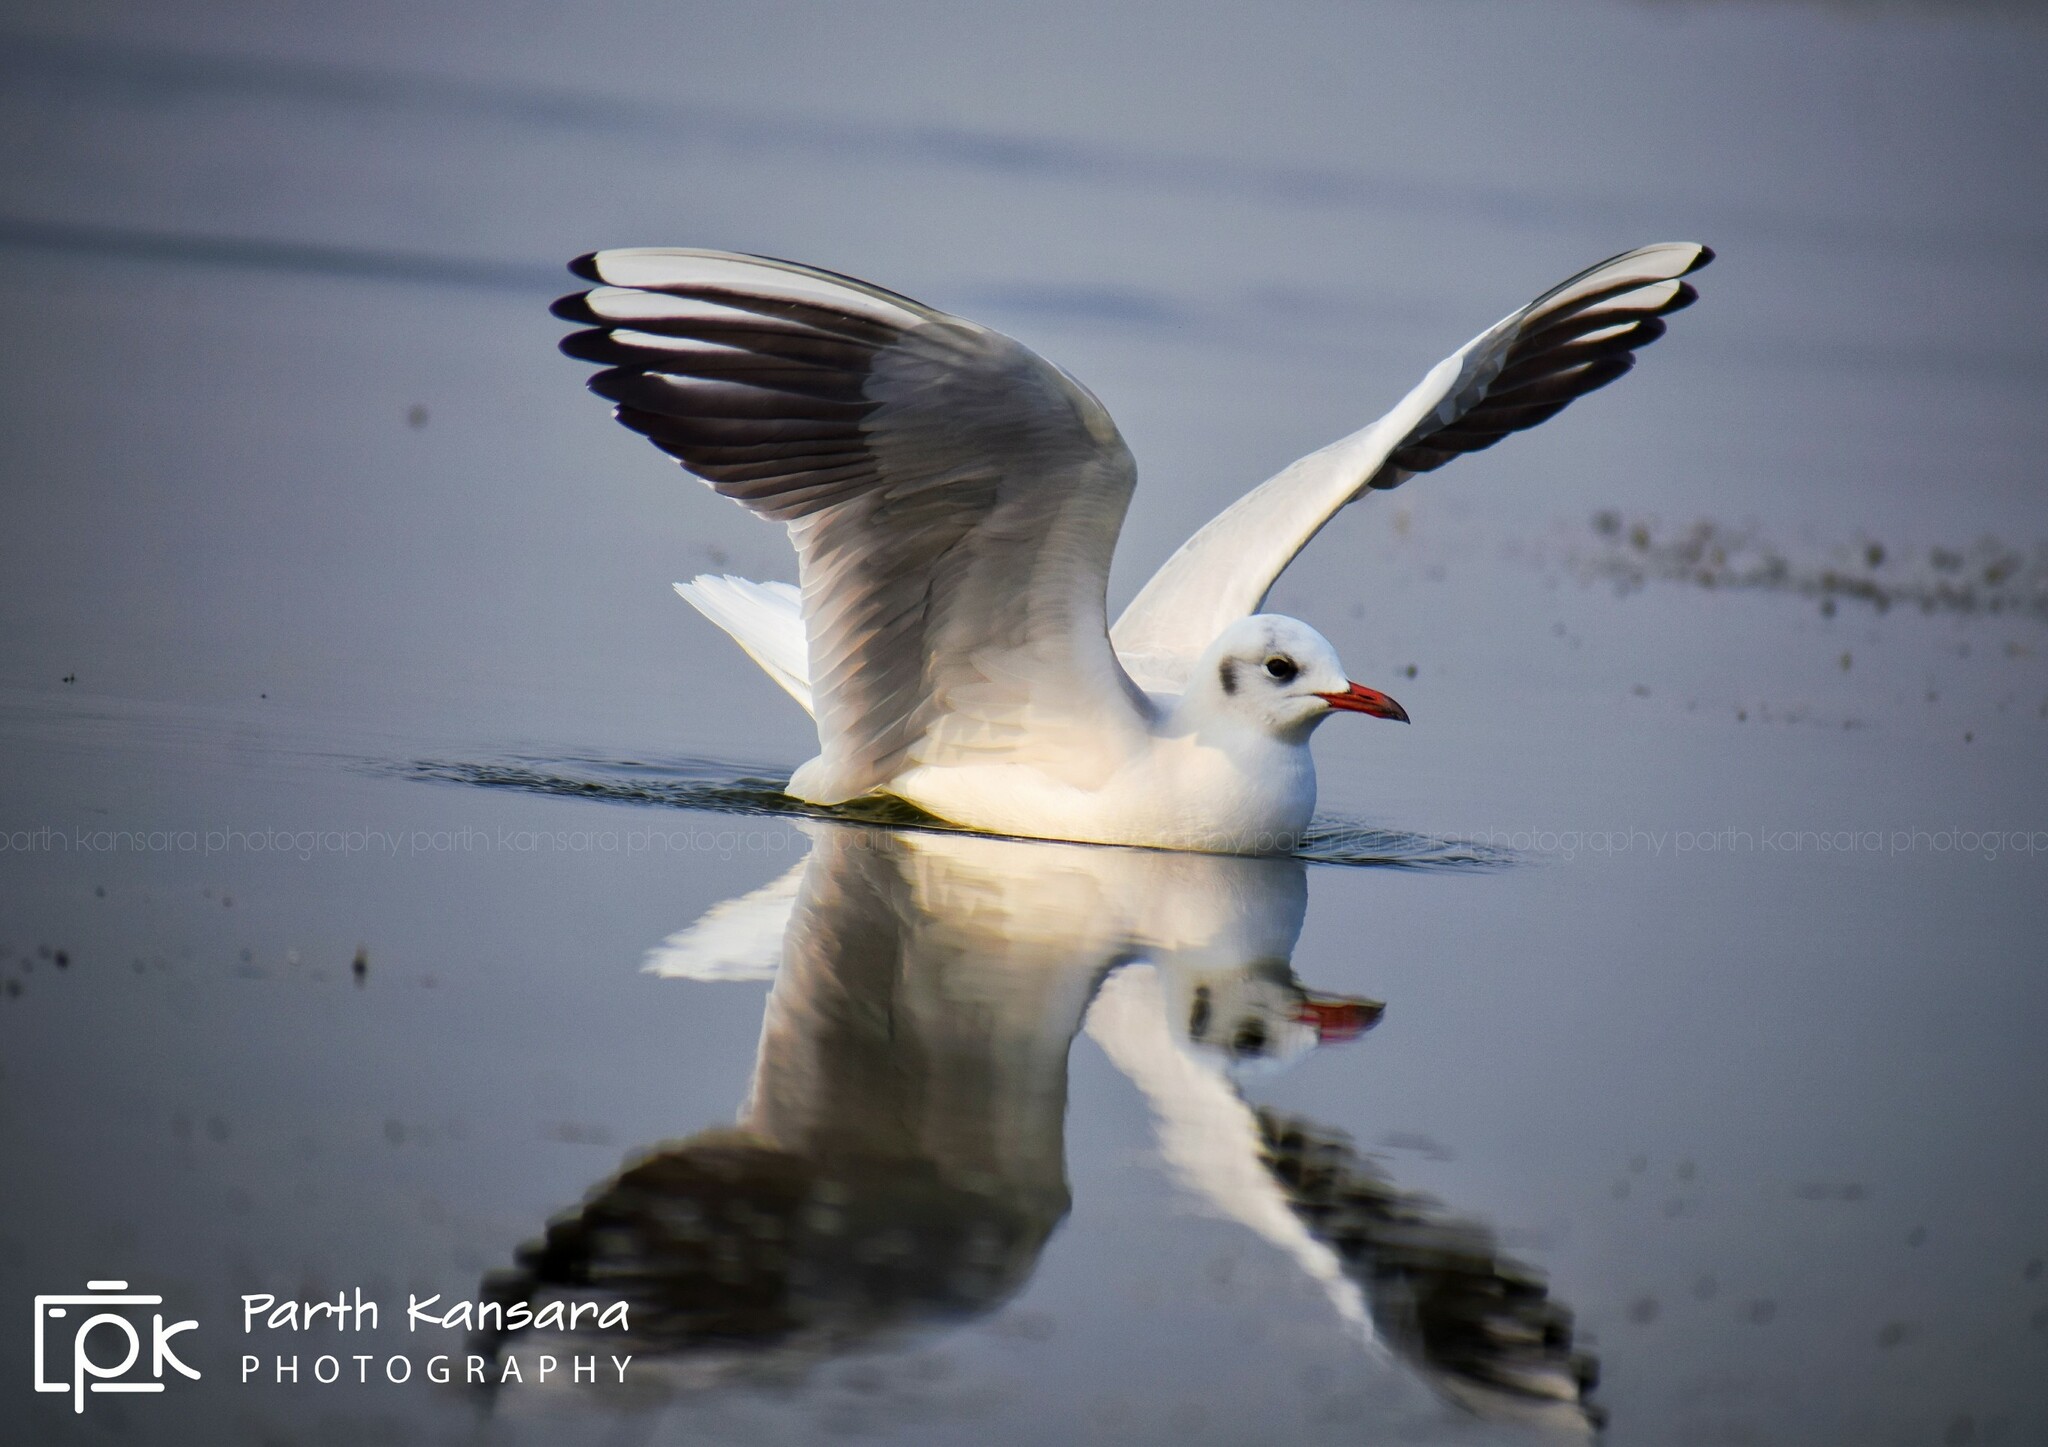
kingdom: Animalia
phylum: Chordata
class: Aves
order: Charadriiformes
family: Laridae
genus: Chroicocephalus
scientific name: Chroicocephalus ridibundus
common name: Black-headed gull
